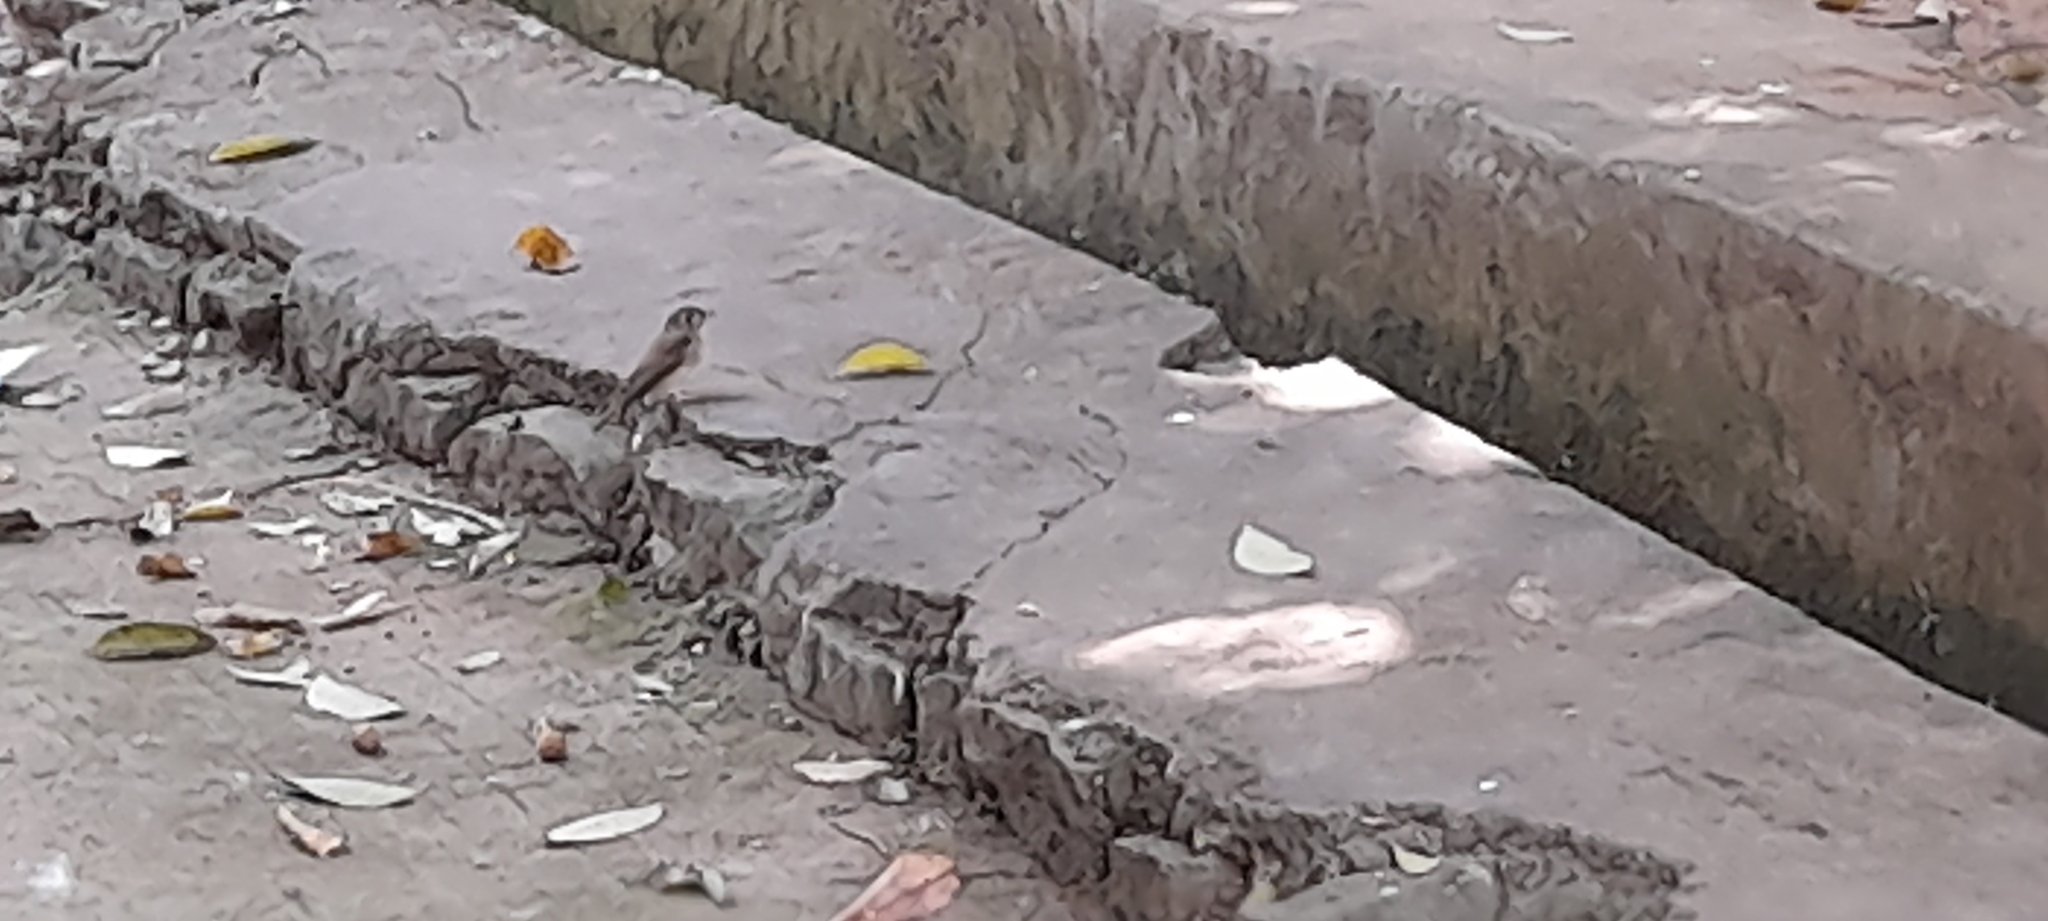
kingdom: Animalia
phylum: Chordata
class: Aves
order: Passeriformes
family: Muscicapidae
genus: Muscicapa
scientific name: Muscicapa muttui
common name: Brown-breasted flycatcher
